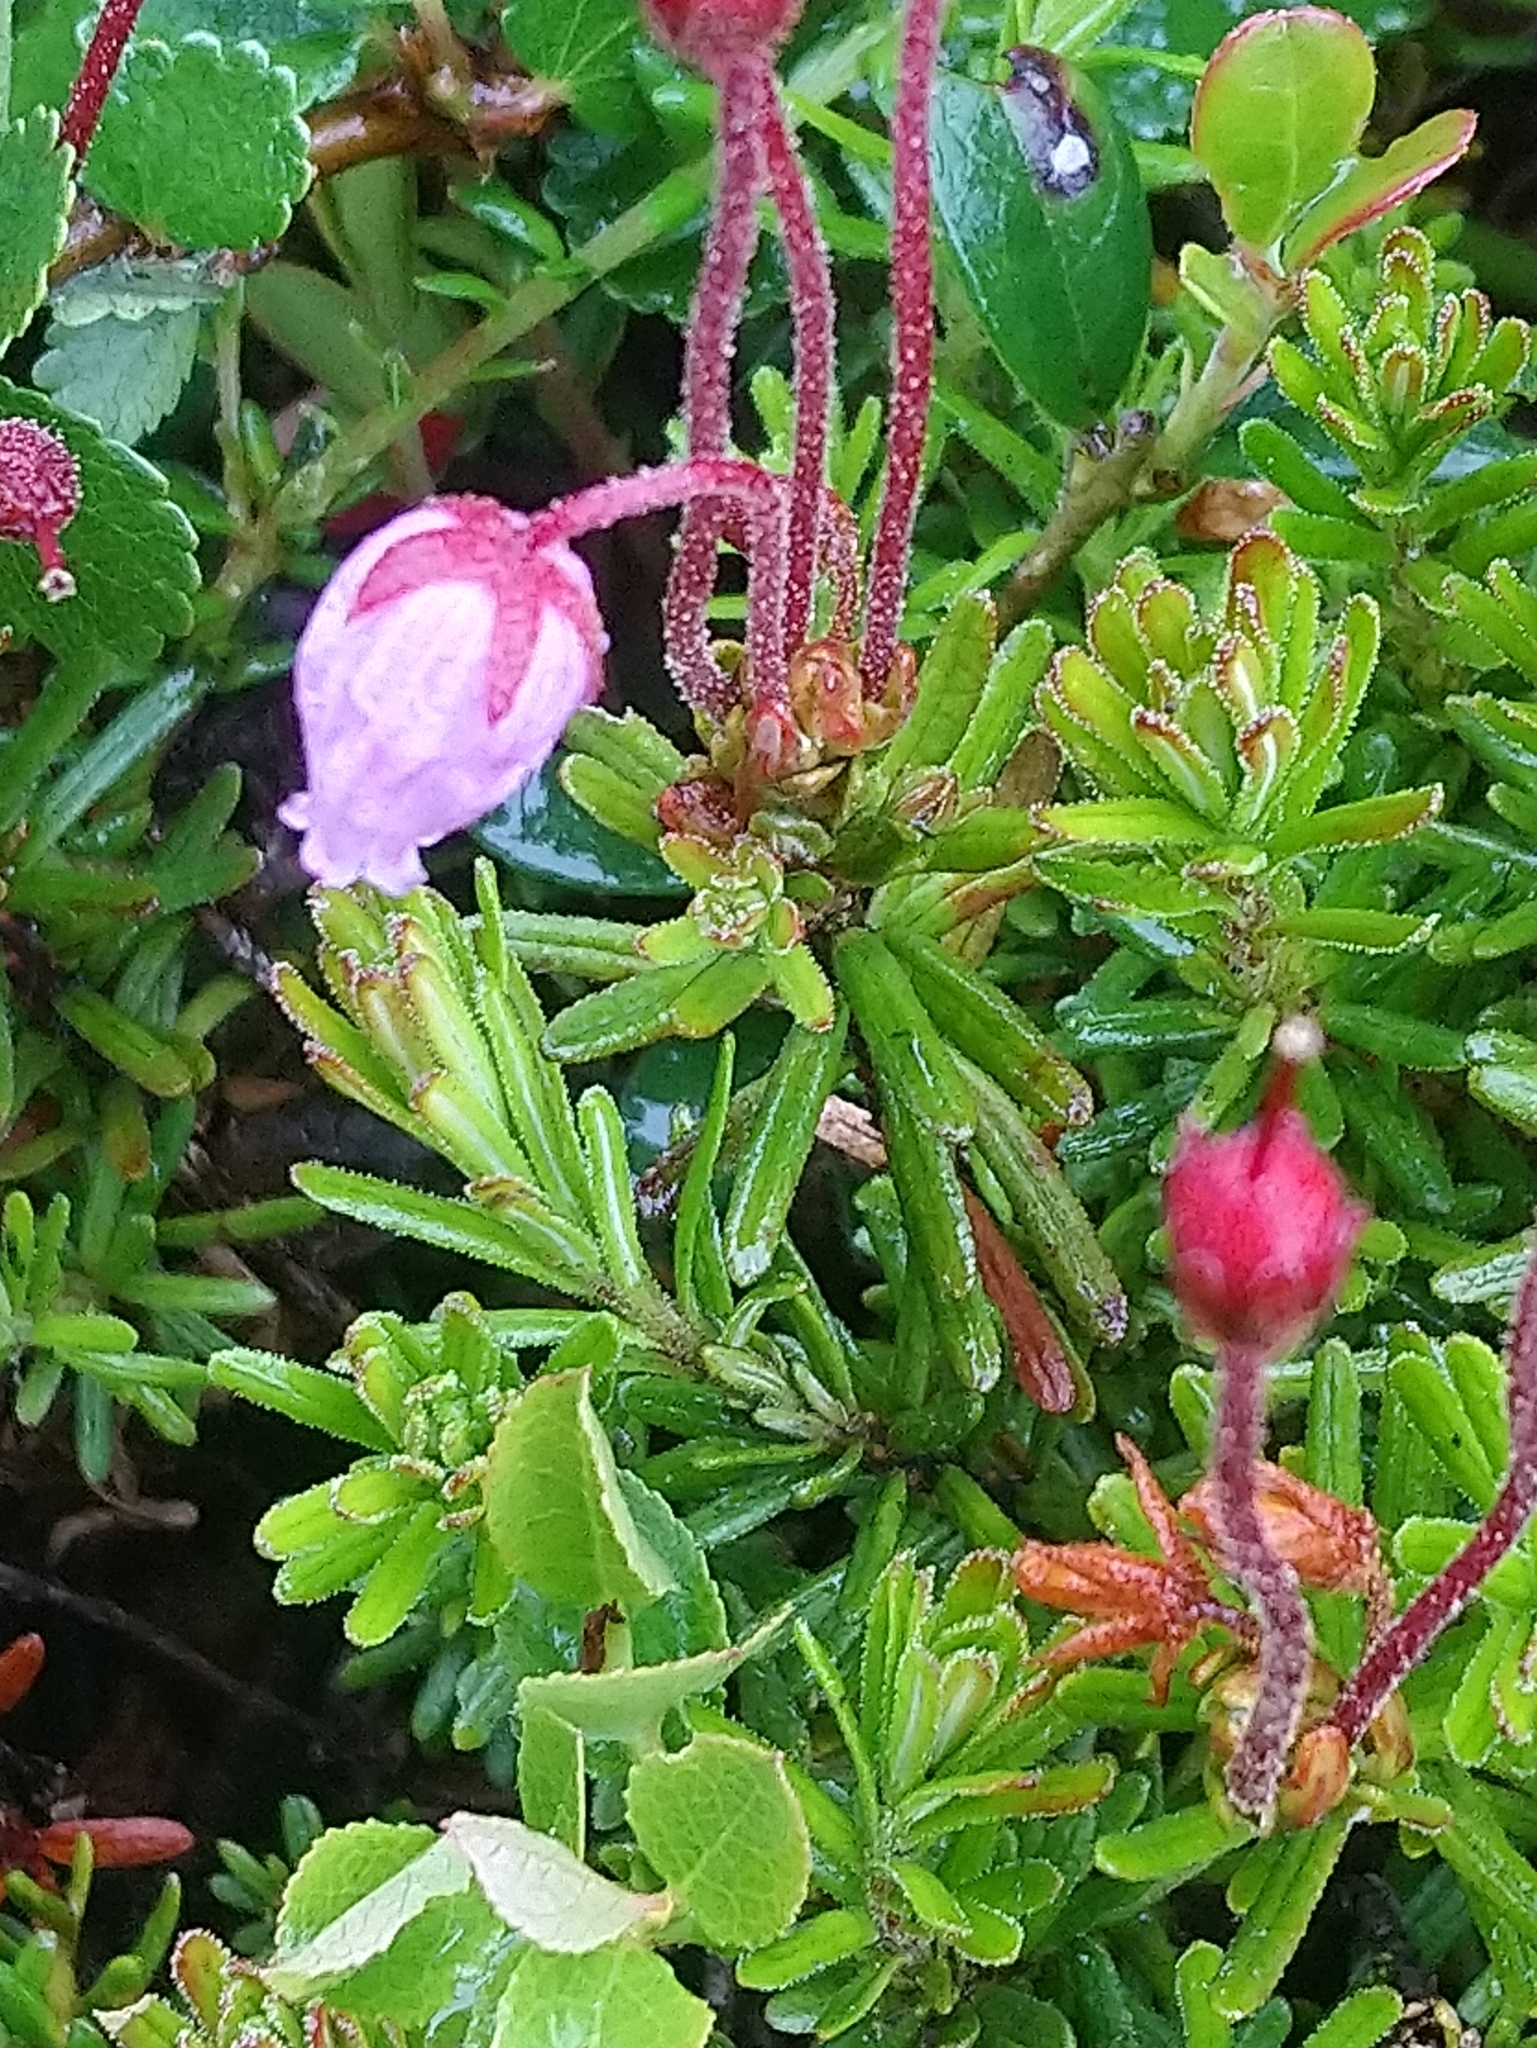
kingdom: Plantae
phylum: Tracheophyta
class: Magnoliopsida
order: Ericales
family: Ericaceae
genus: Phyllodoce
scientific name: Phyllodoce caerulea
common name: Blue heath
